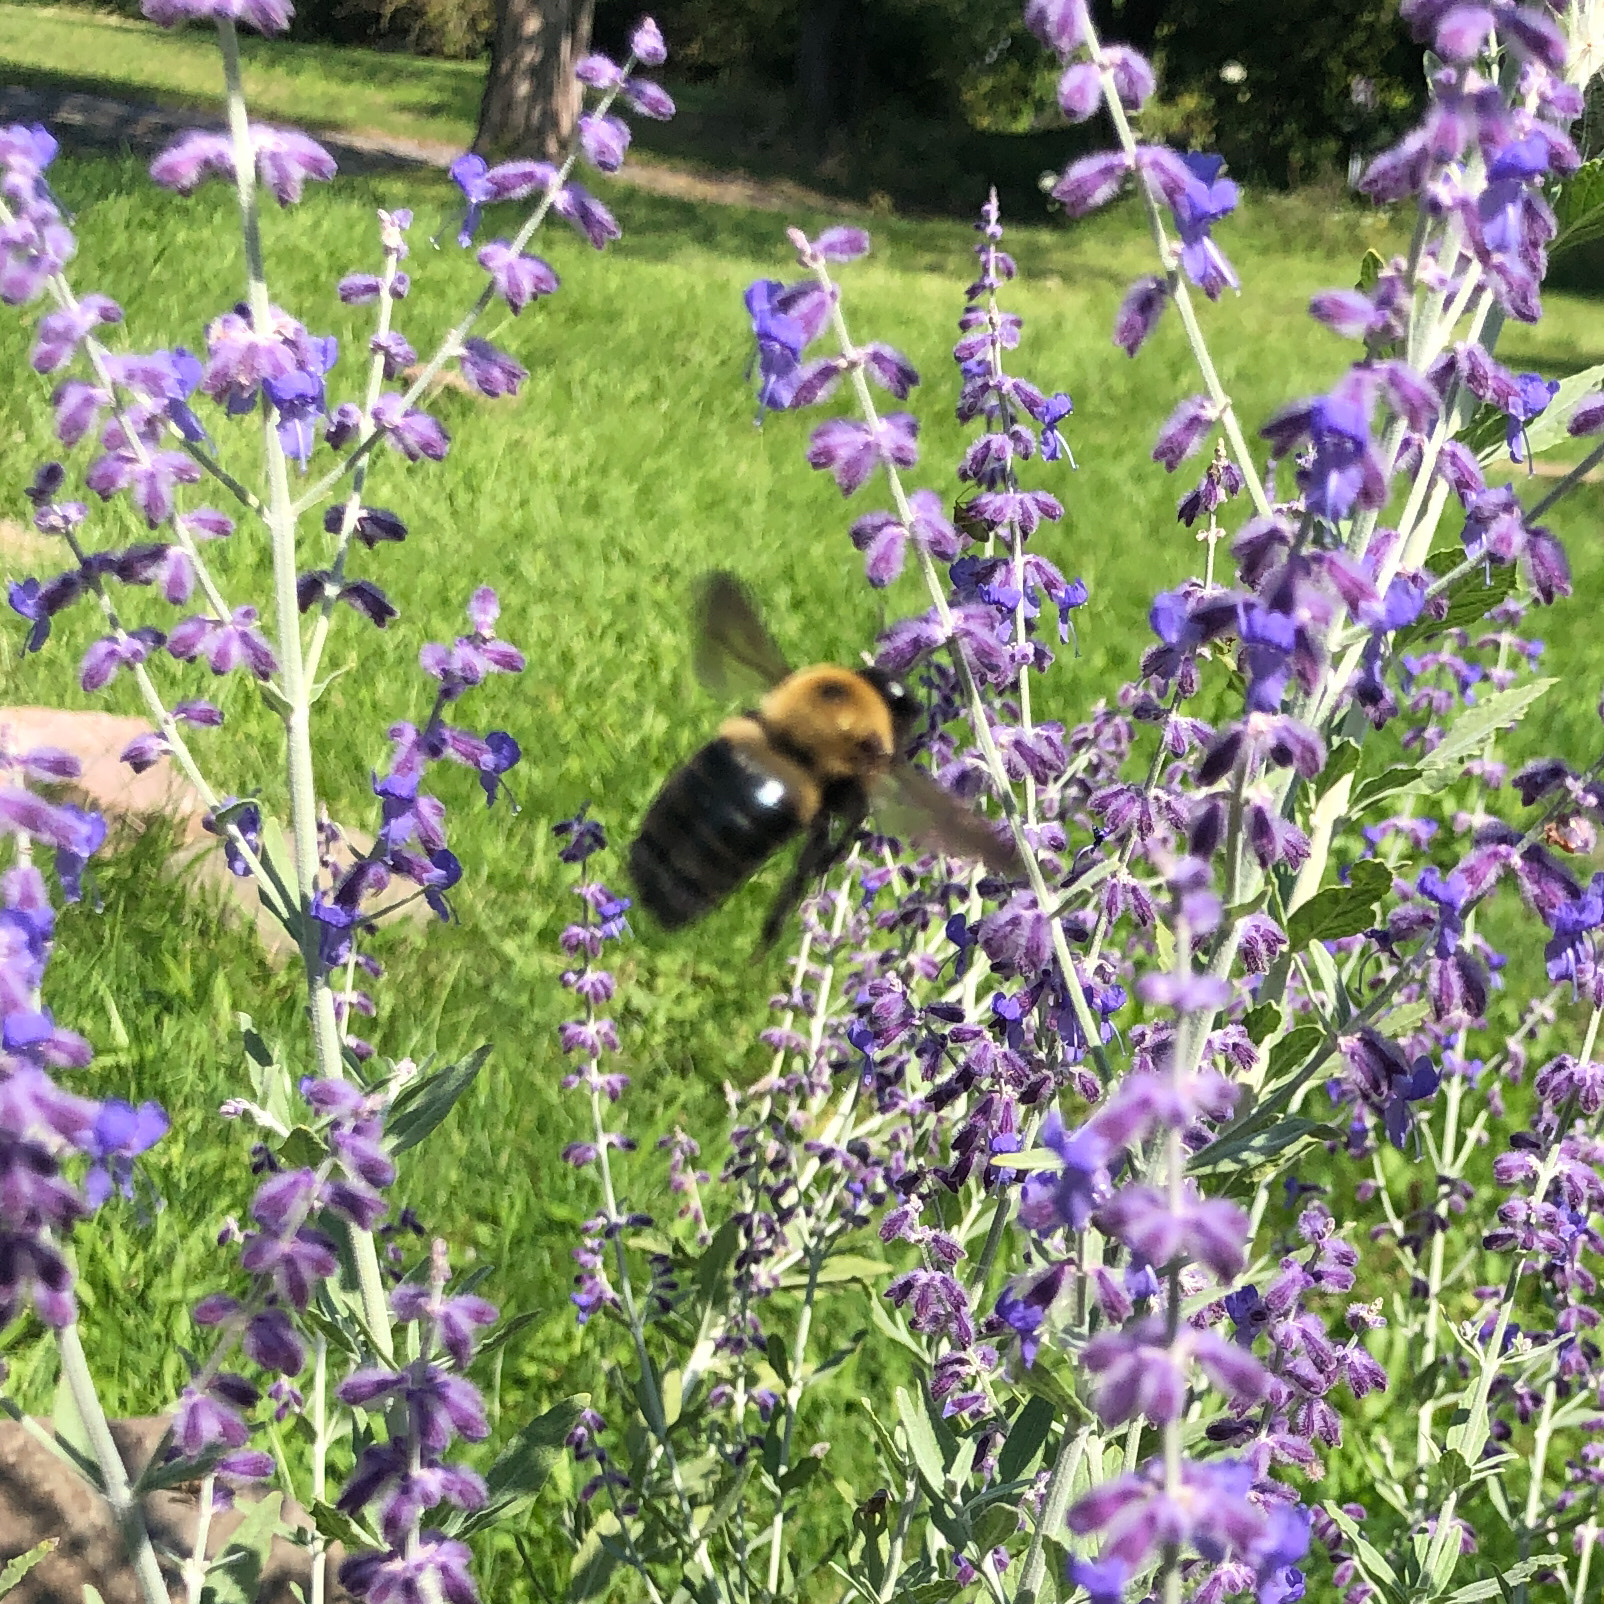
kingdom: Animalia
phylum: Arthropoda
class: Insecta
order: Hymenoptera
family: Apidae
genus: Xylocopa
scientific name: Xylocopa virginica
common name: Carpenter bee
